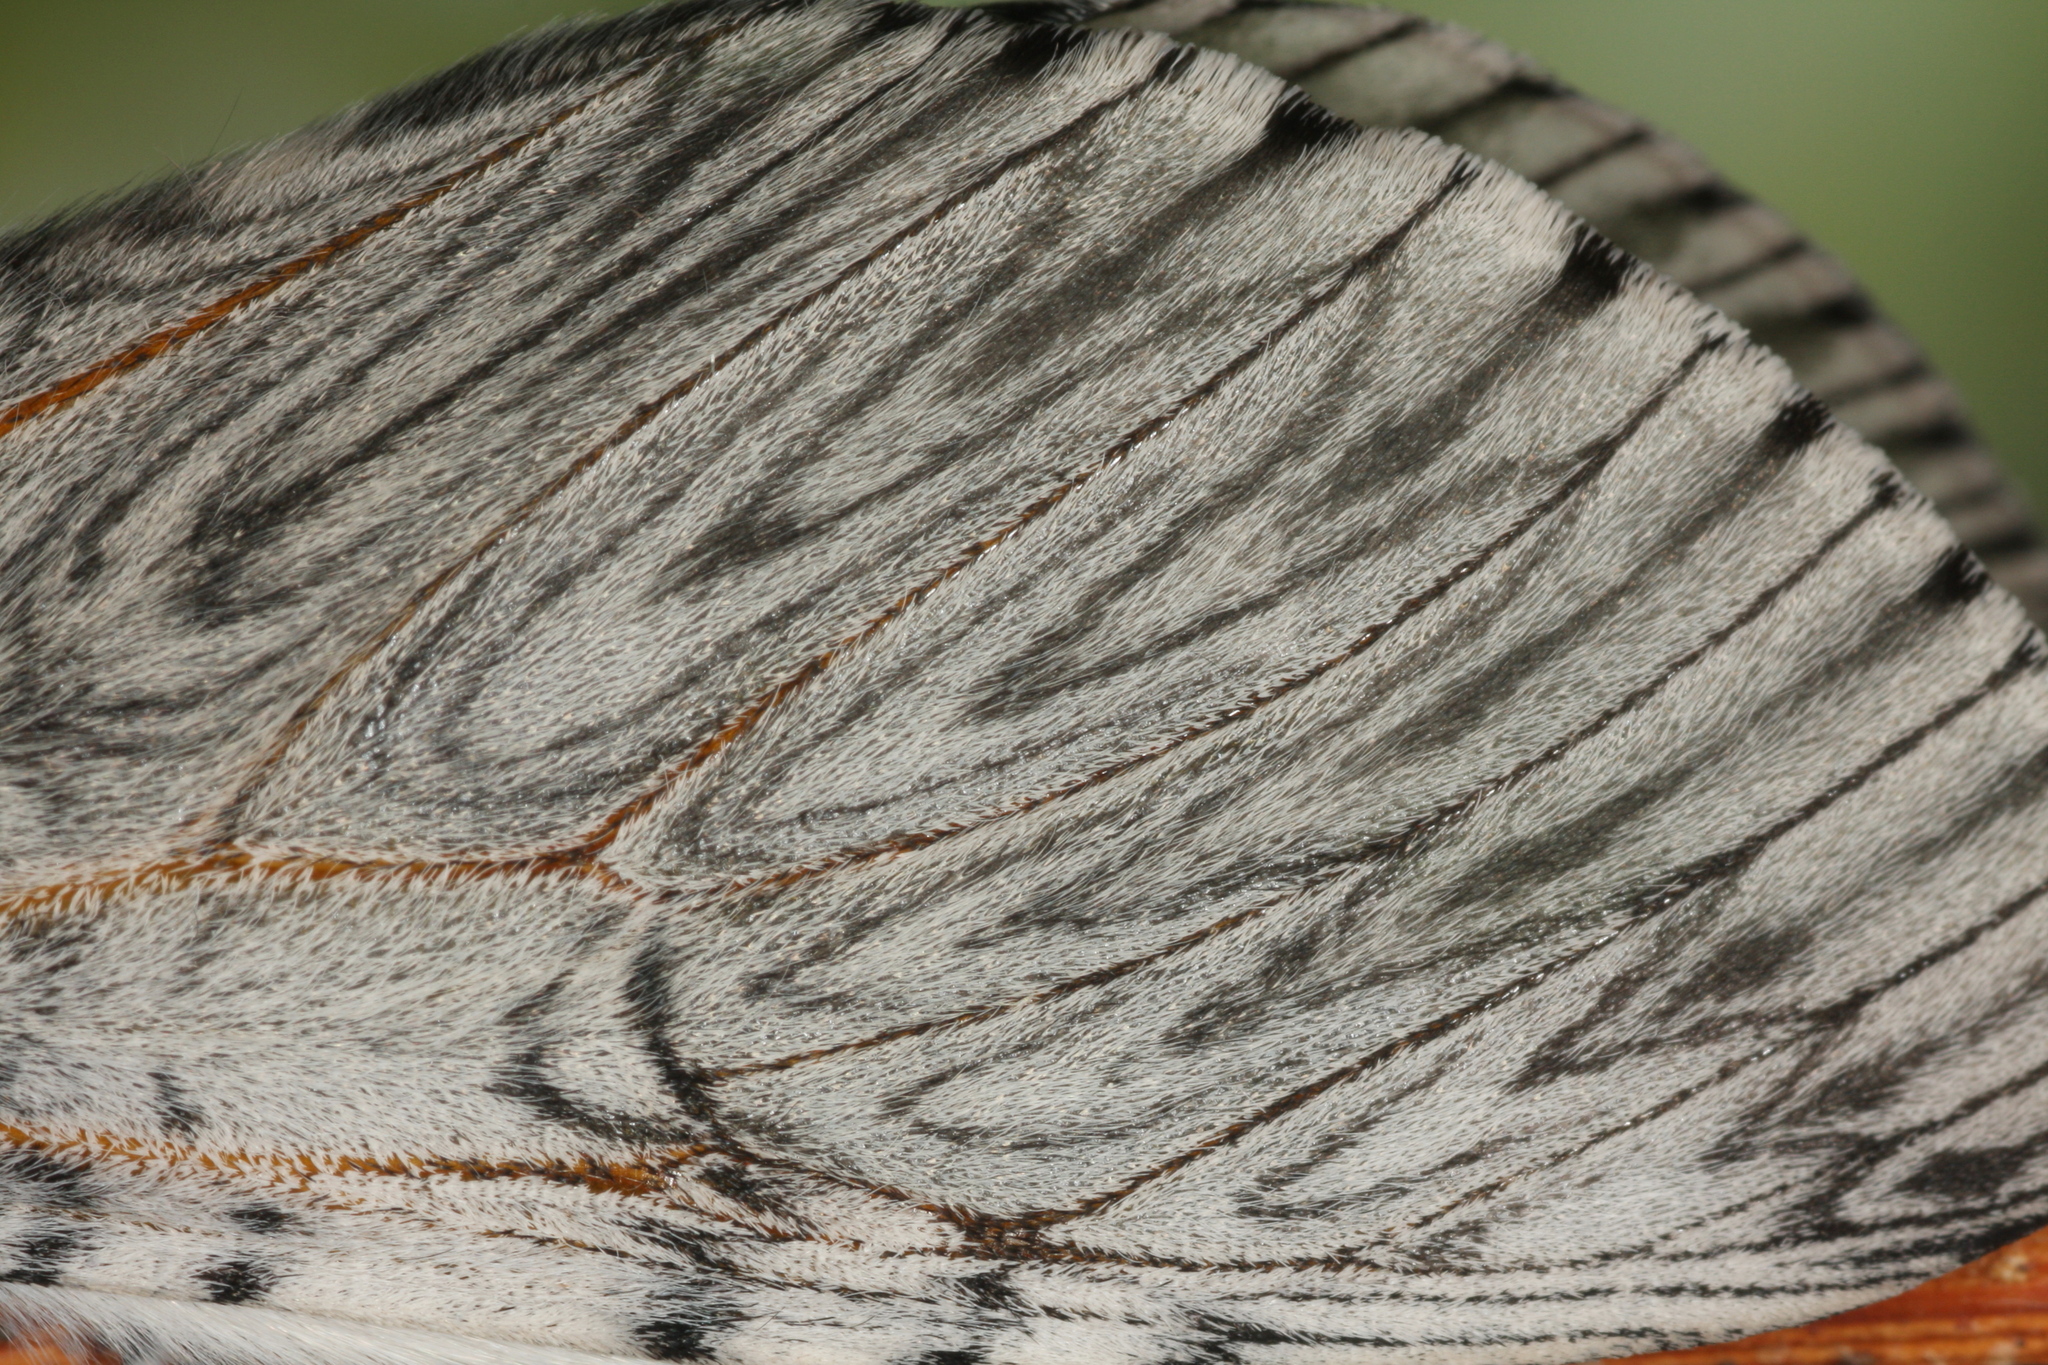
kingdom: Animalia
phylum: Arthropoda
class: Insecta
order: Lepidoptera
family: Notodontidae
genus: Cerura
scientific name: Cerura vinula
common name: Puss moth
